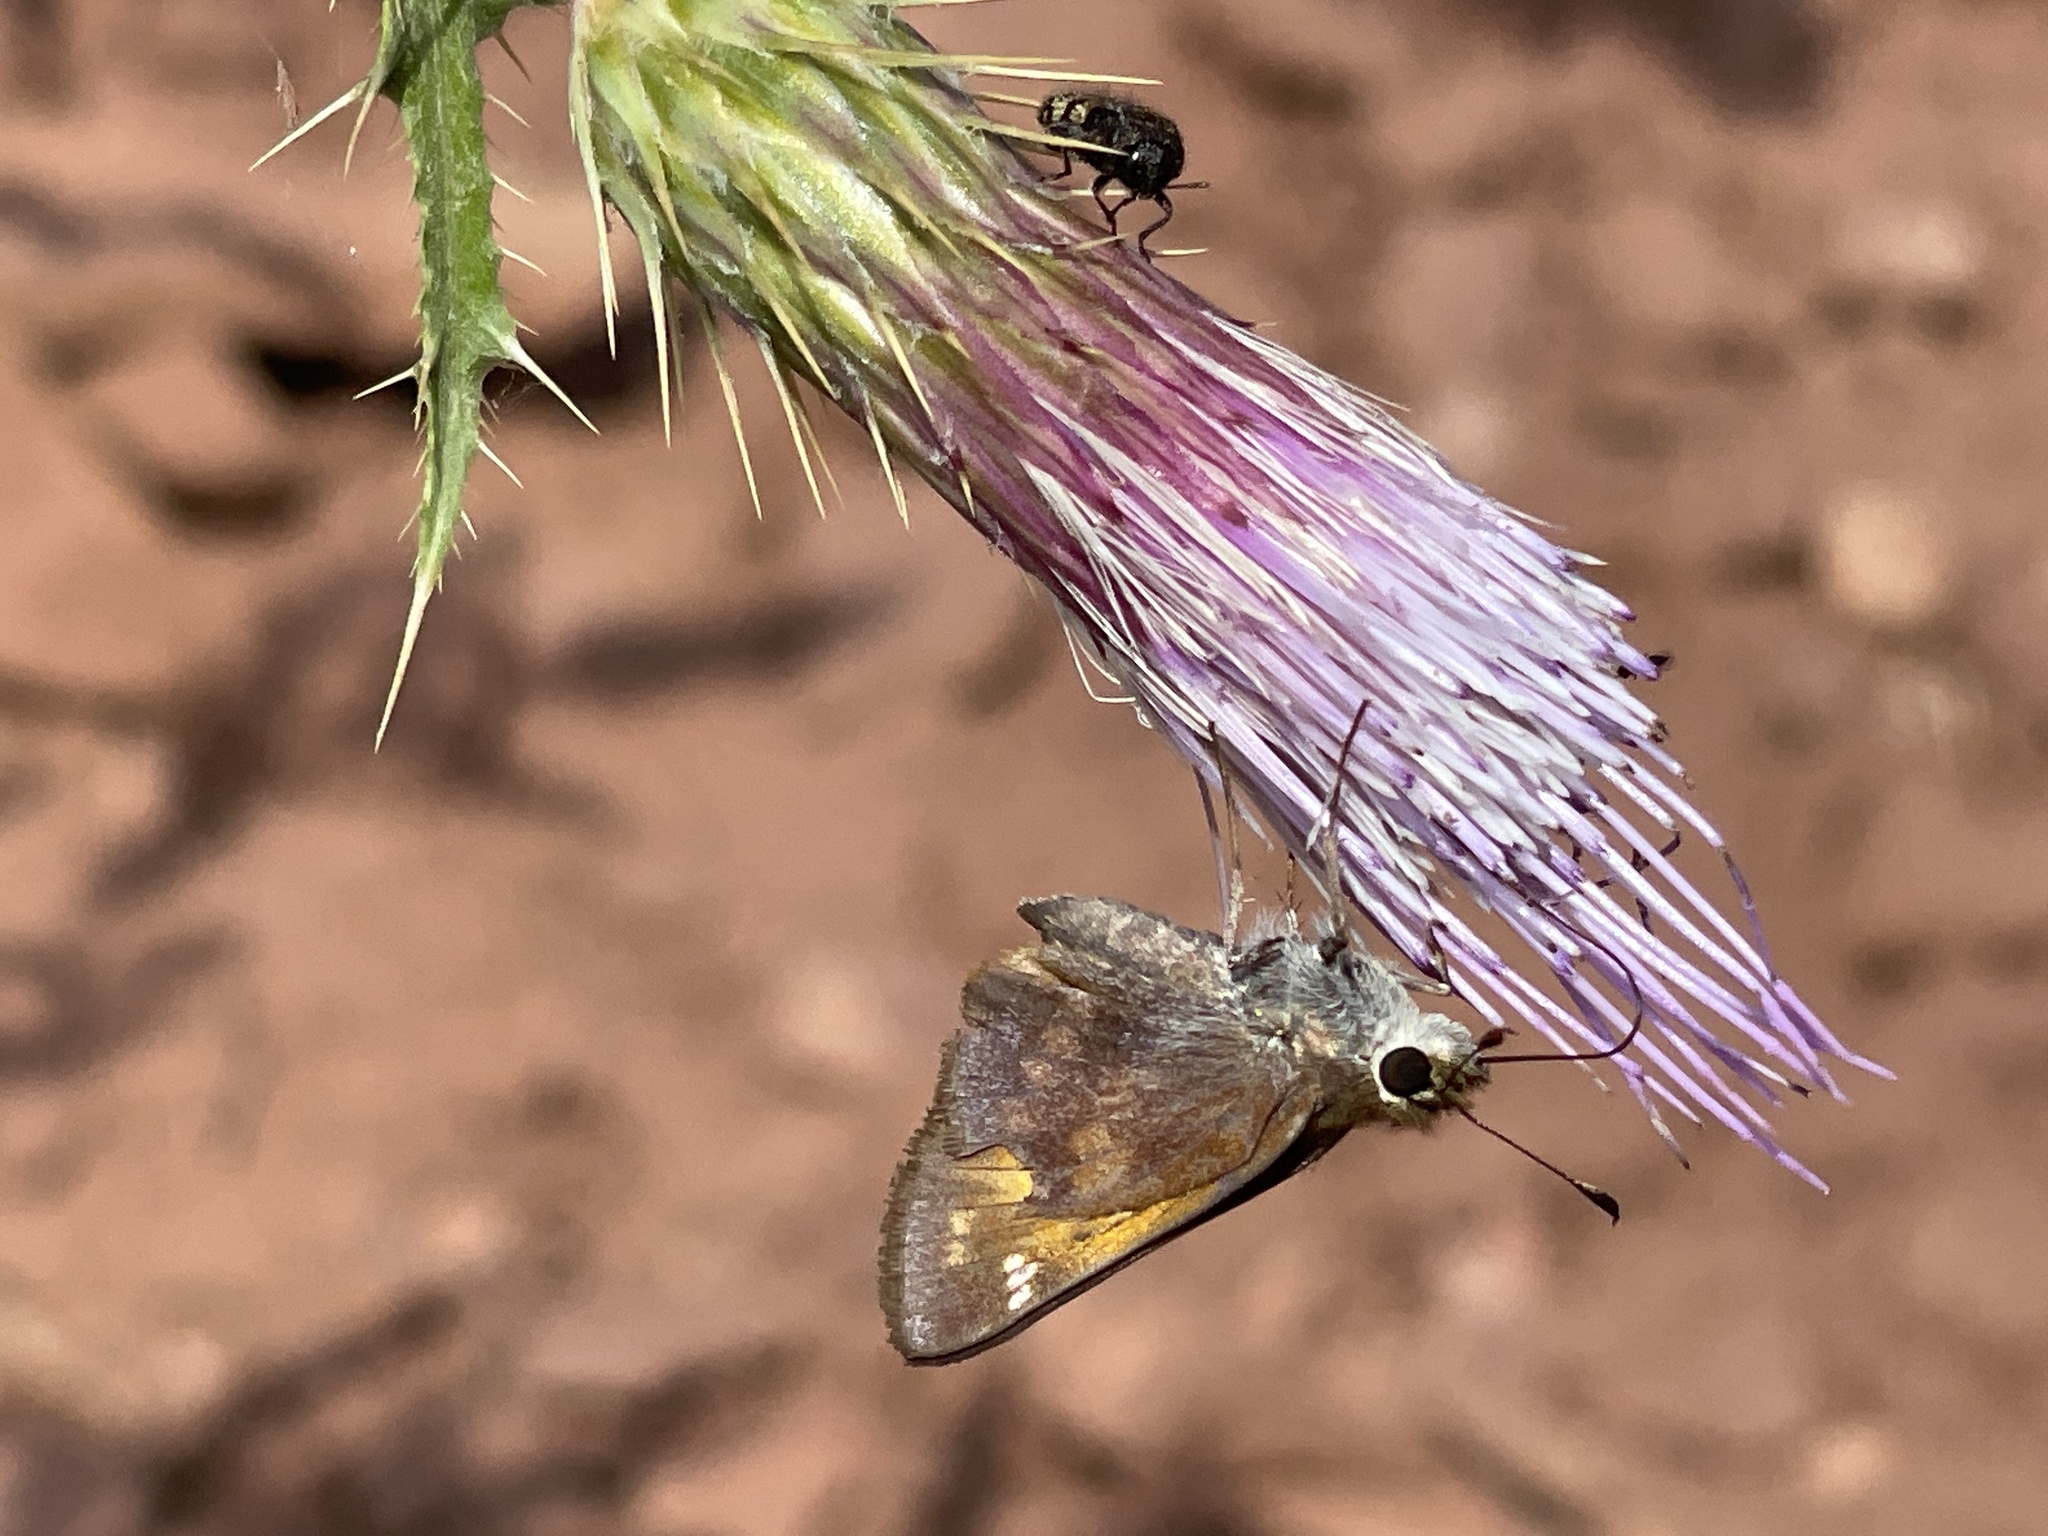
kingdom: Animalia
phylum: Arthropoda
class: Insecta
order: Lepidoptera
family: Hesperiidae
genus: Lon
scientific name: Lon taxiles
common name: Taxiles skipper
